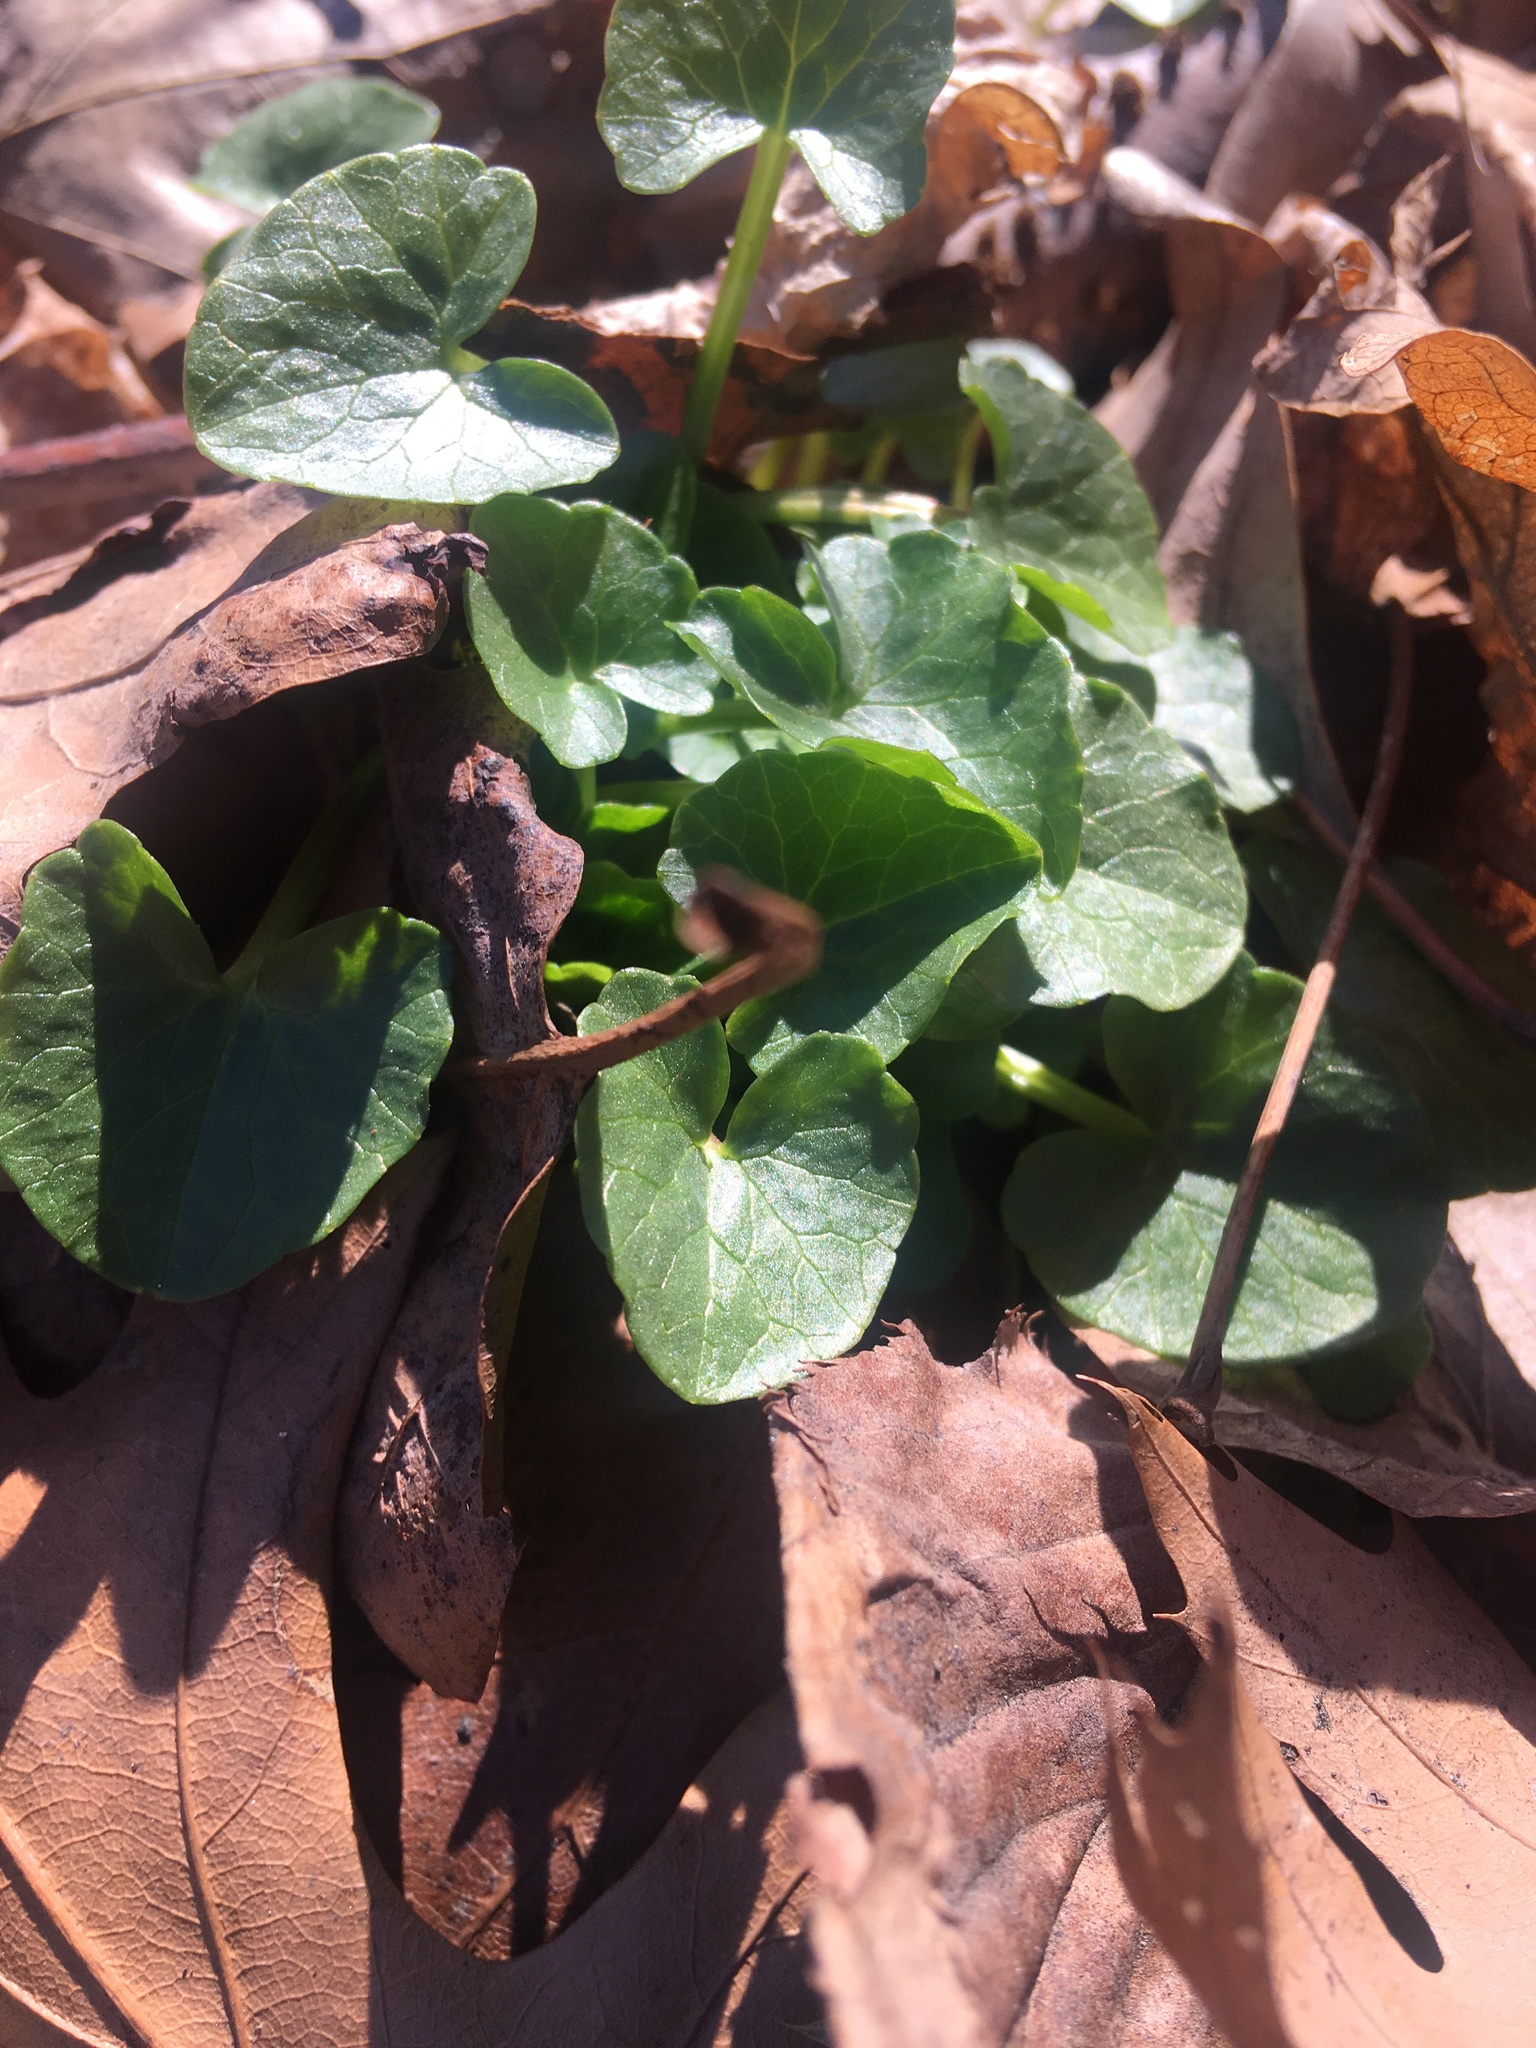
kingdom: Plantae
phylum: Tracheophyta
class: Magnoliopsida
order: Ranunculales
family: Ranunculaceae
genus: Ficaria
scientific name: Ficaria verna
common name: Lesser celandine
